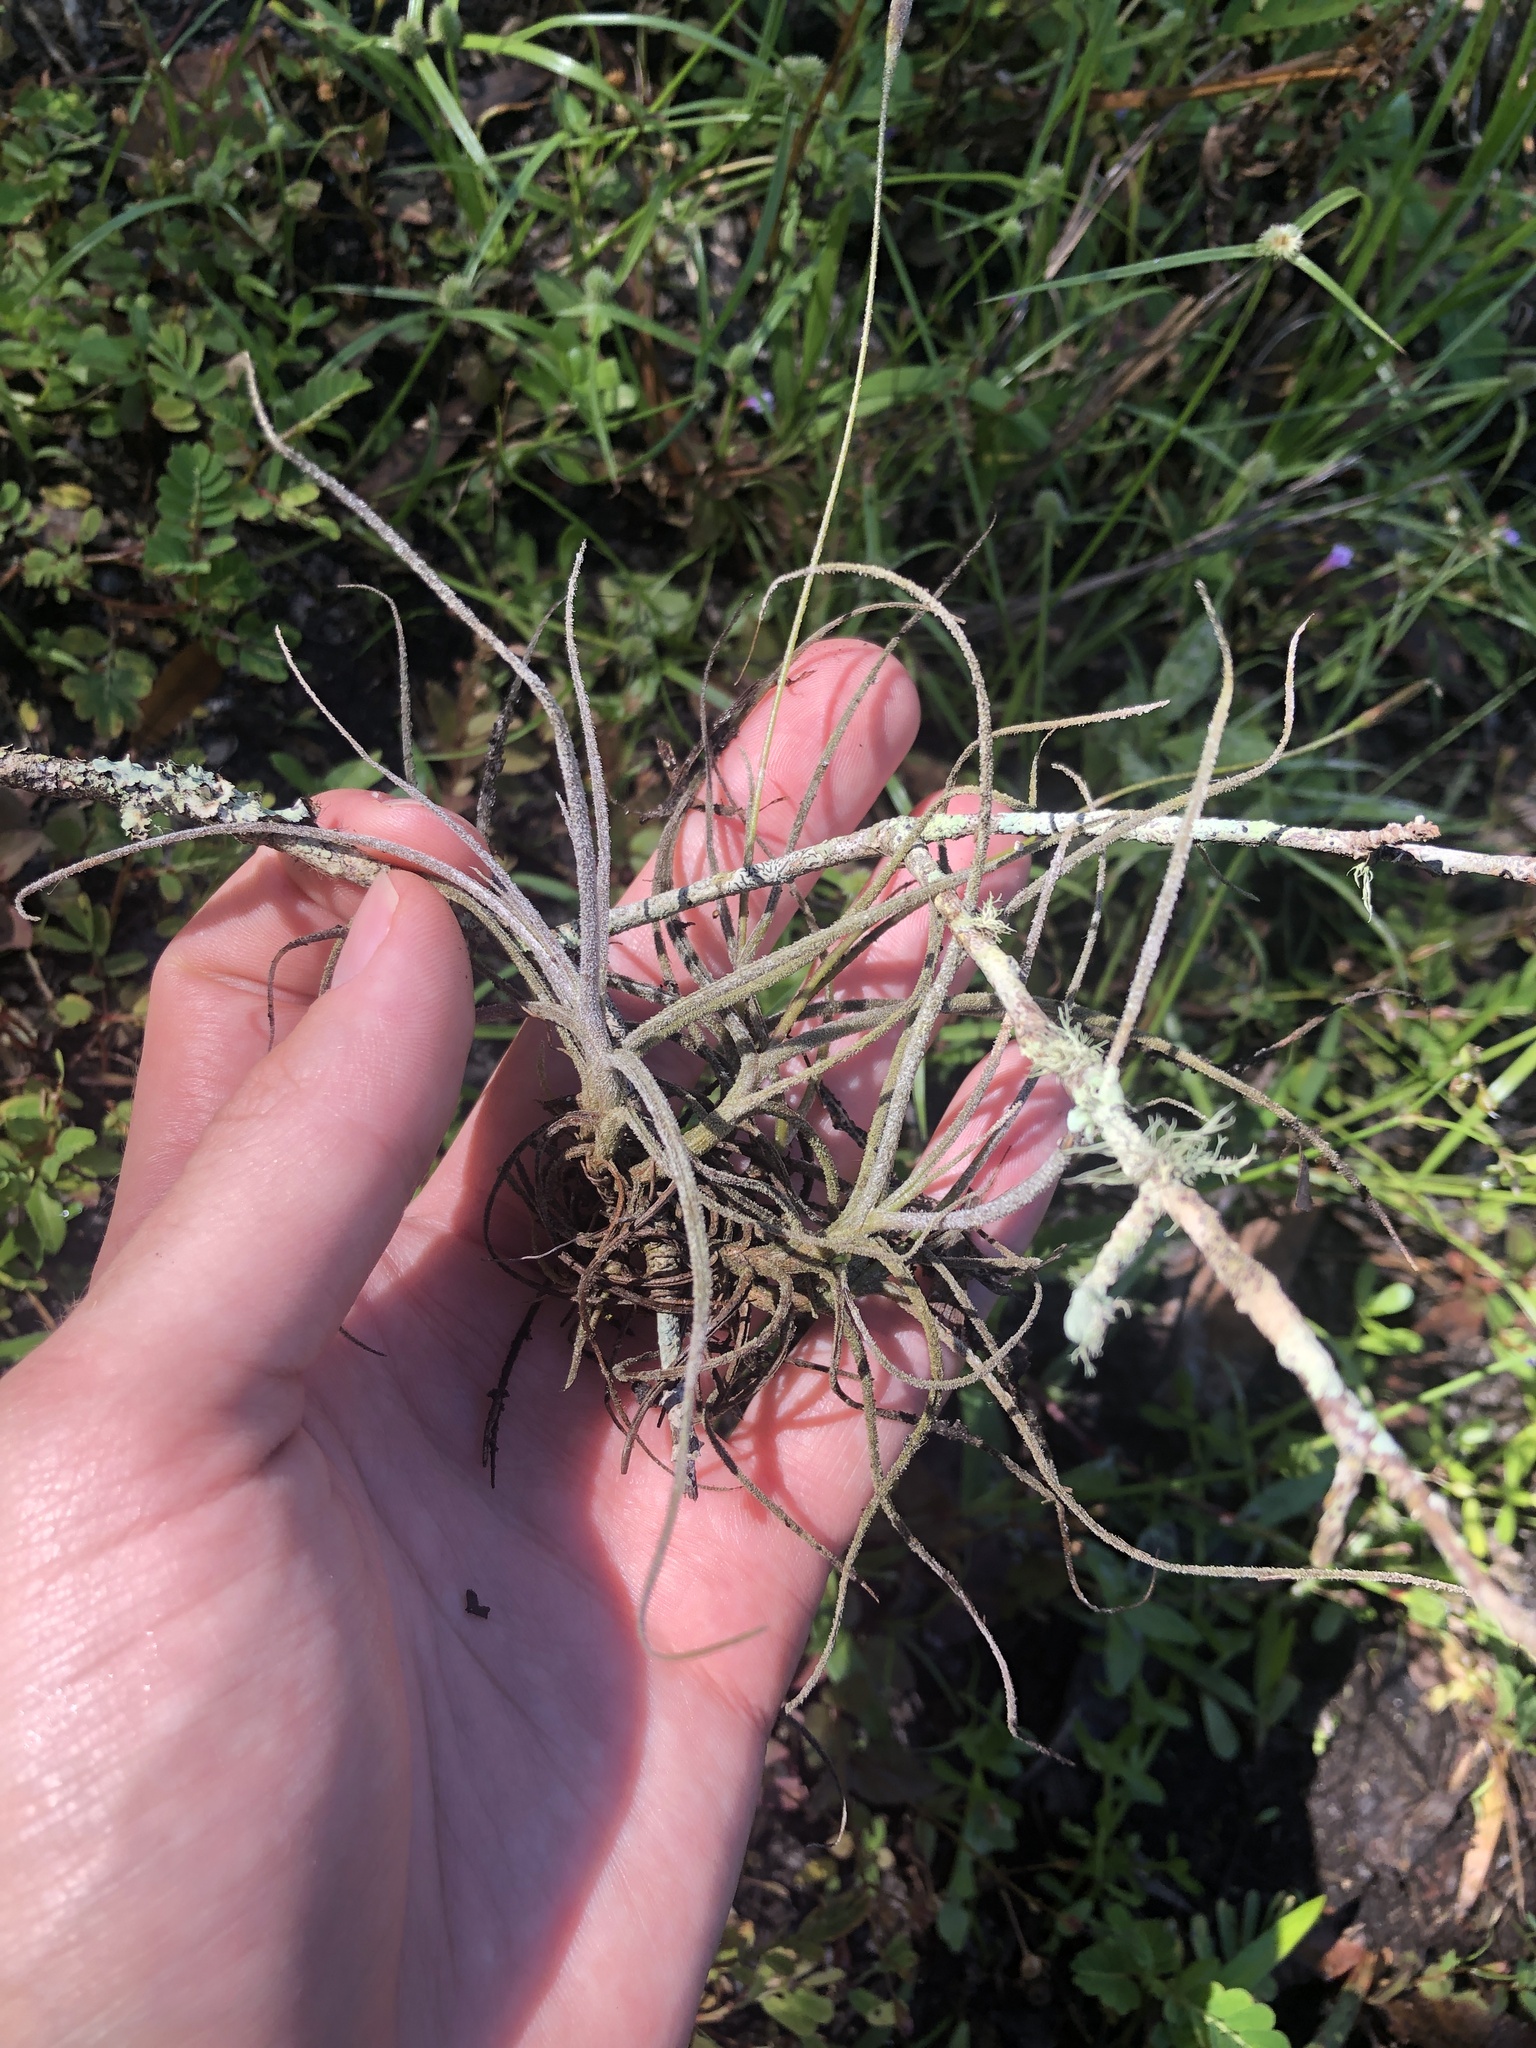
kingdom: Plantae
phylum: Tracheophyta
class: Liliopsida
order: Poales
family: Bromeliaceae
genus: Tillandsia
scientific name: Tillandsia recurvata
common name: Small ballmoss
